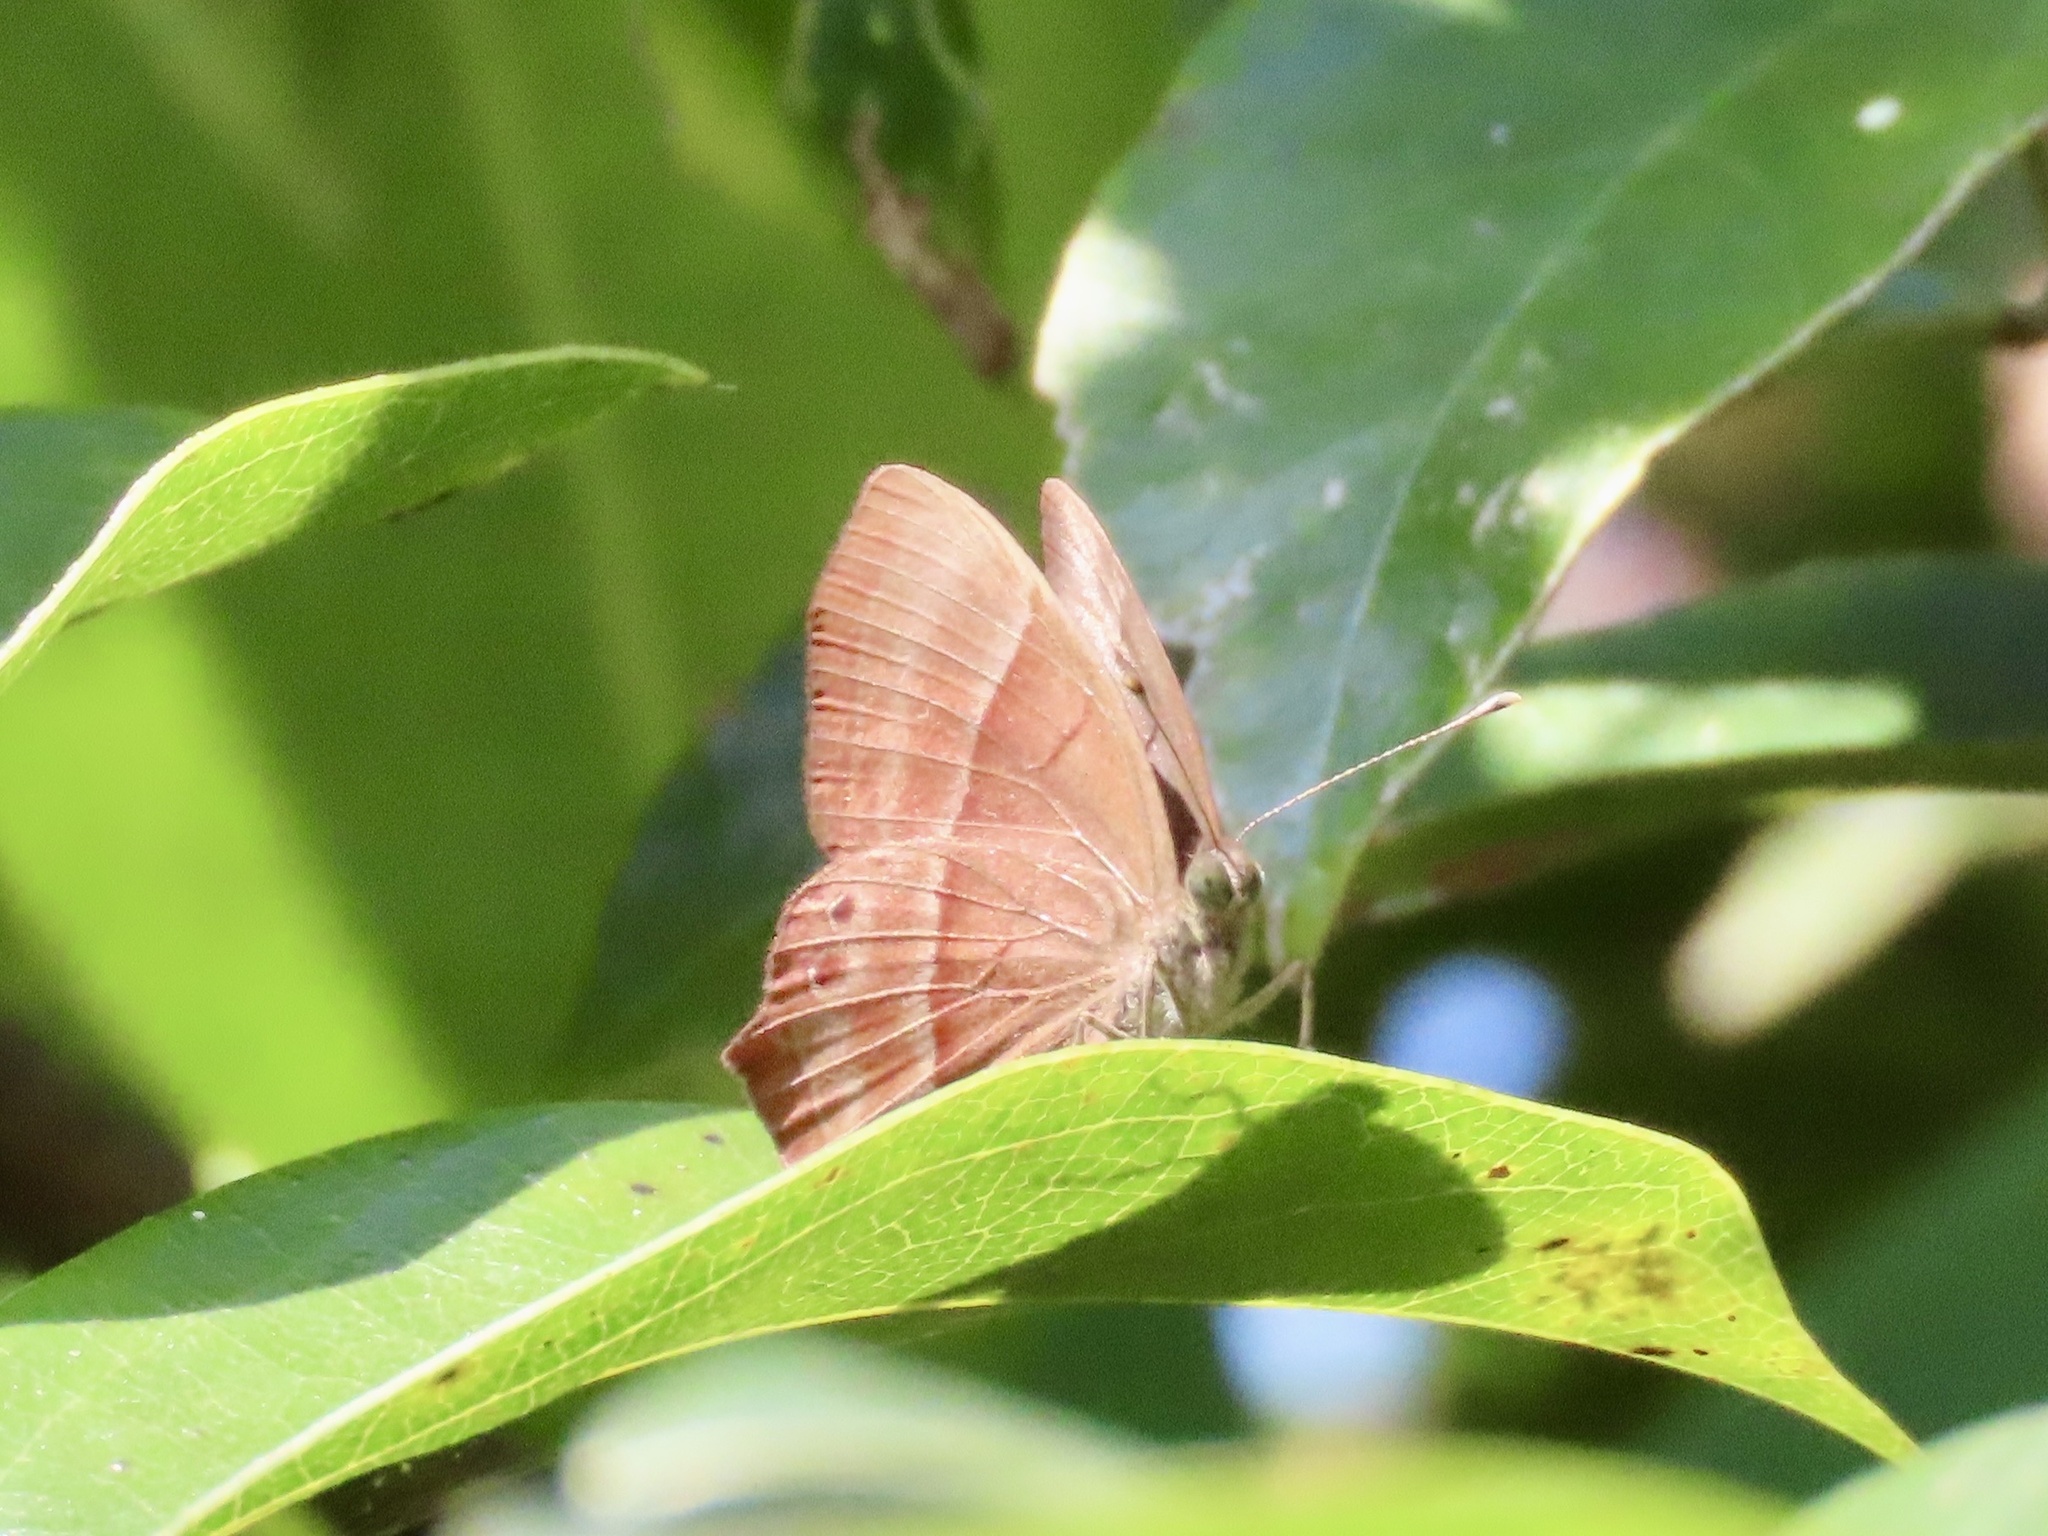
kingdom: Animalia
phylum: Arthropoda
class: Insecta
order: Lepidoptera
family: Lycaenidae
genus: Abisara
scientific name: Abisara echeria
